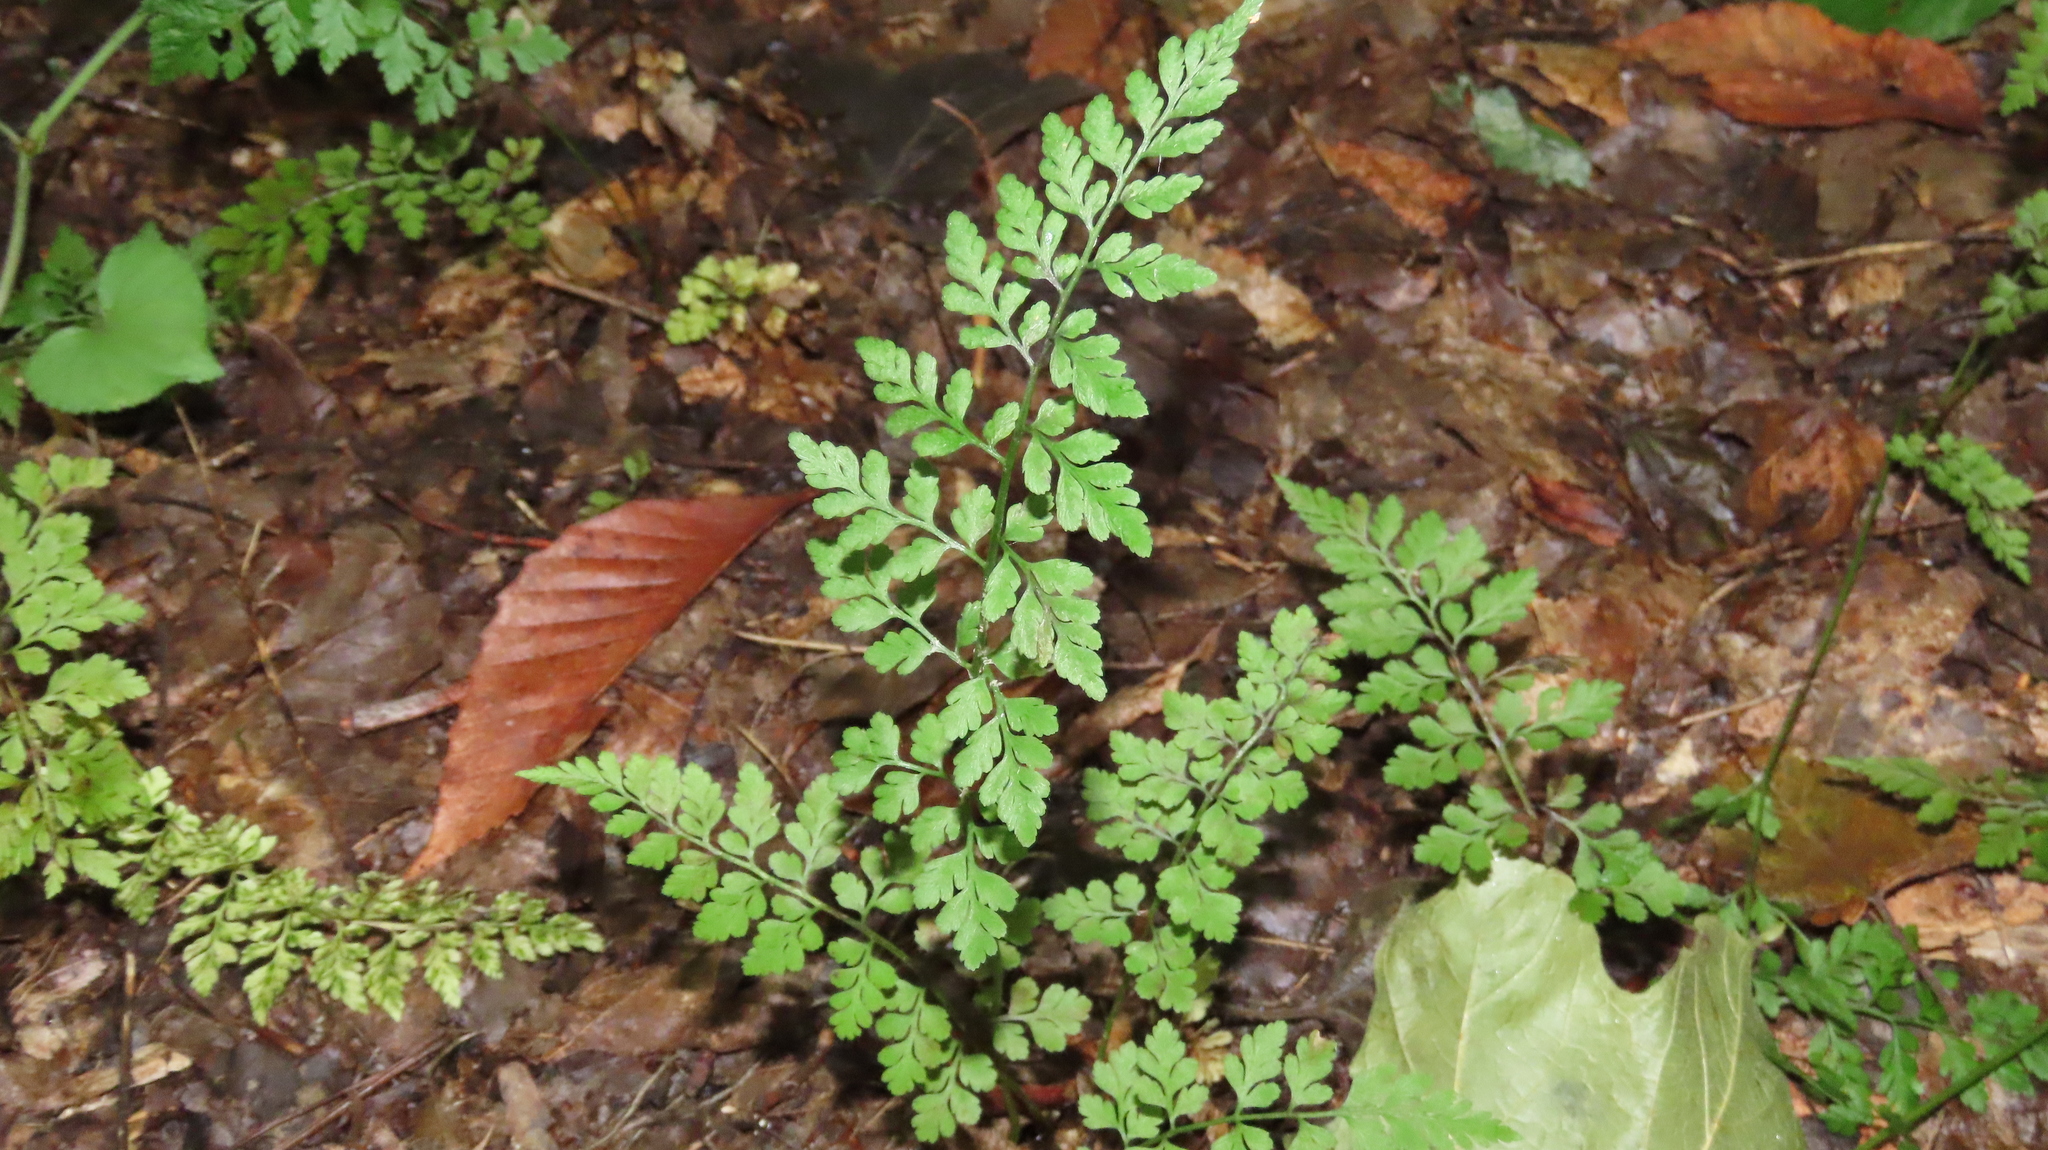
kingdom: Plantae
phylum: Tracheophyta
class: Polypodiopsida
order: Polypodiales
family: Cystopteridaceae
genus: Cystopteris
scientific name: Cystopteris protrusa
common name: Lowland brittle fern
